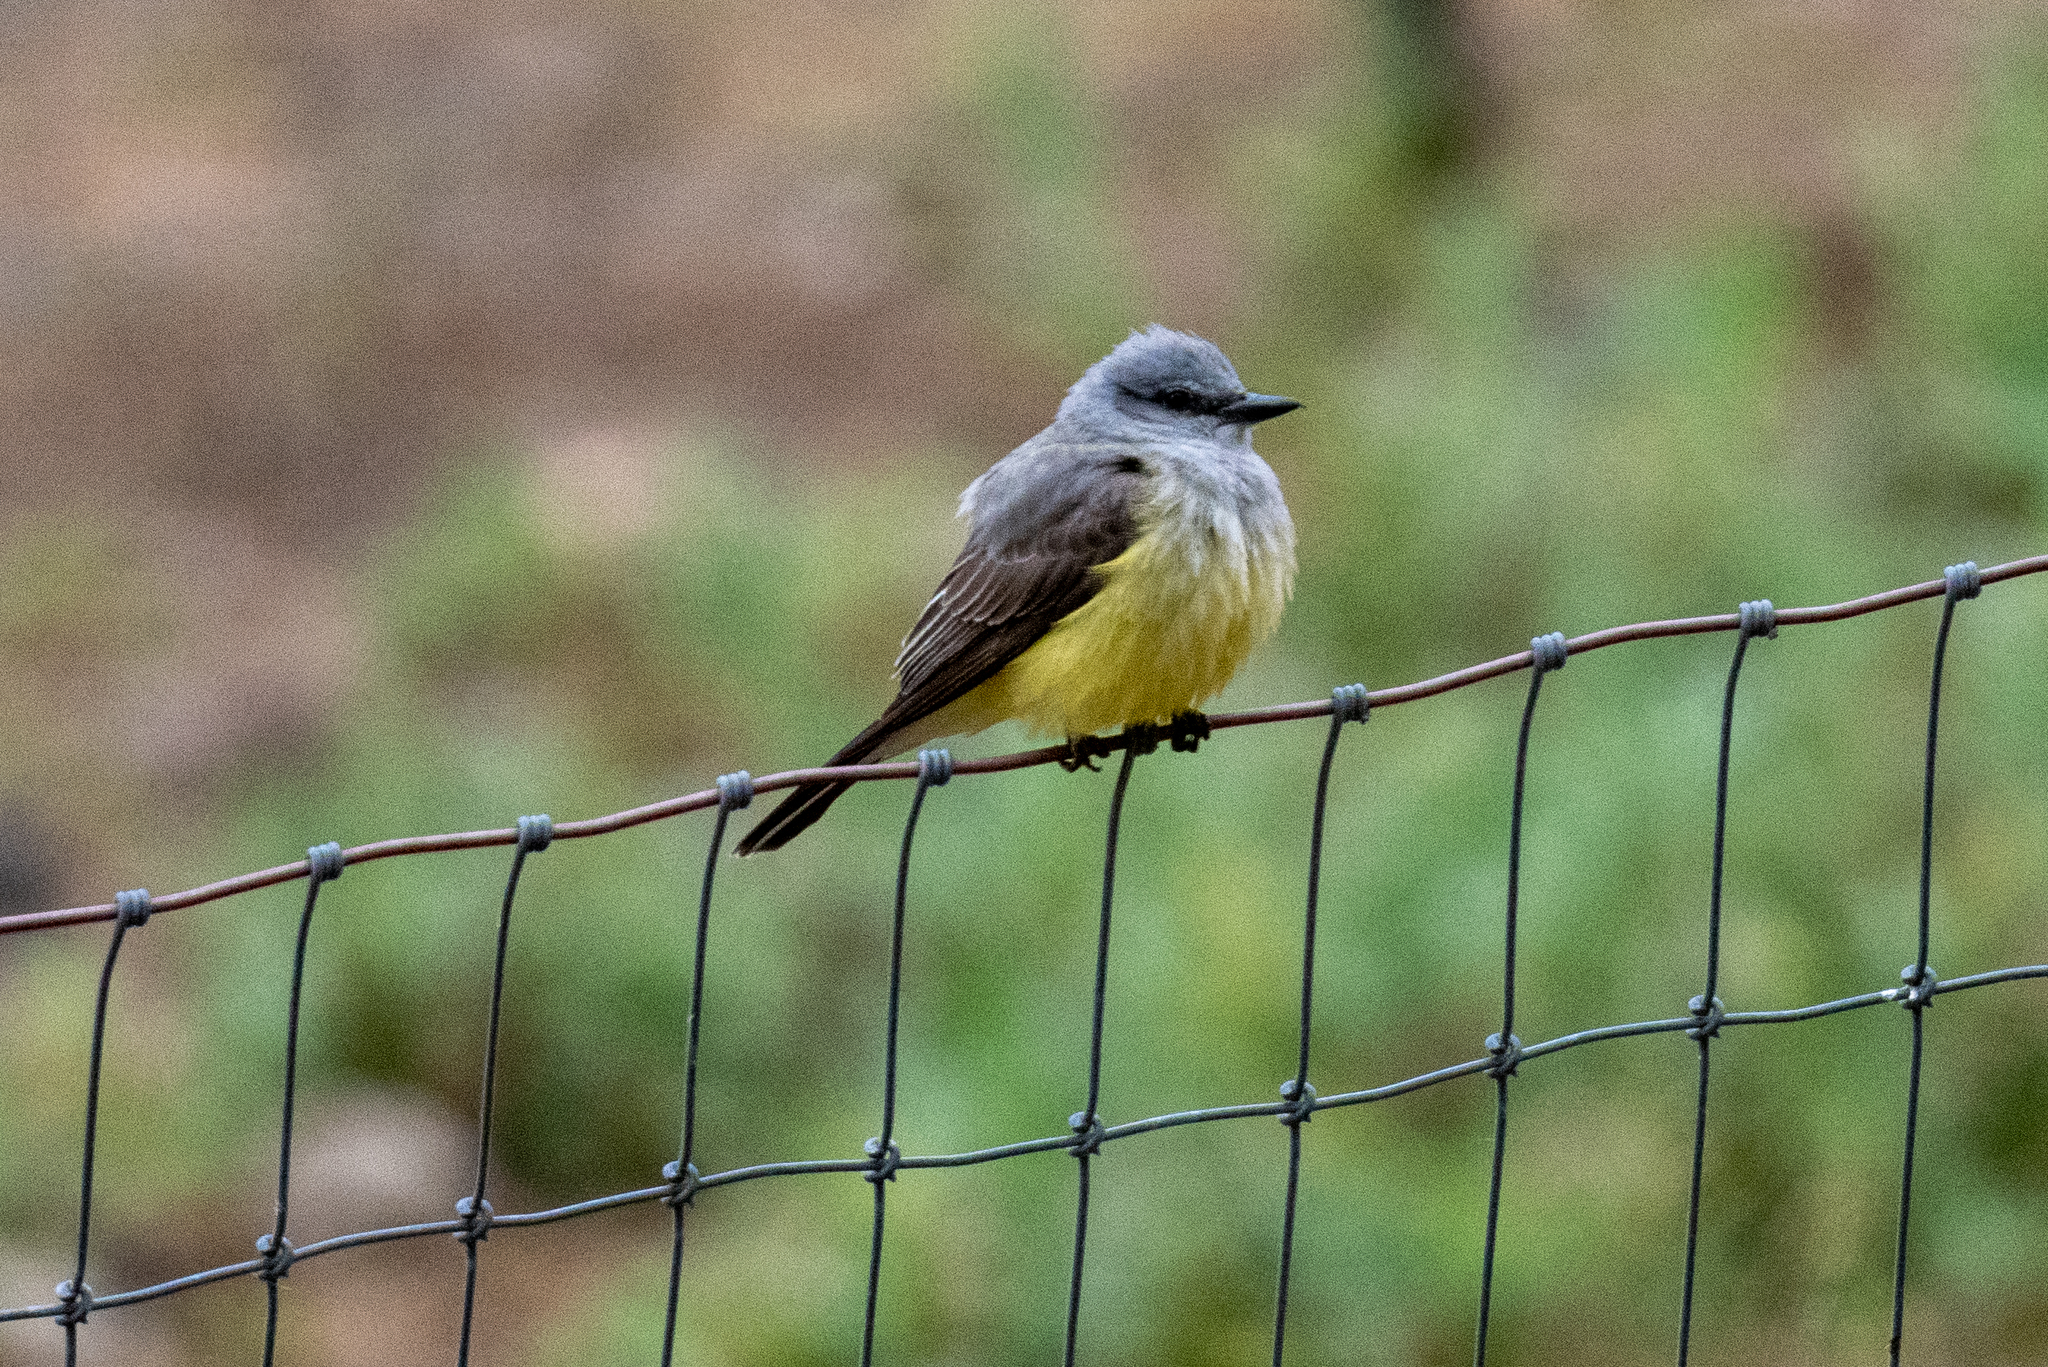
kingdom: Animalia
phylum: Chordata
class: Aves
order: Passeriformes
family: Tyrannidae
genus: Tyrannus
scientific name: Tyrannus verticalis
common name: Western kingbird
